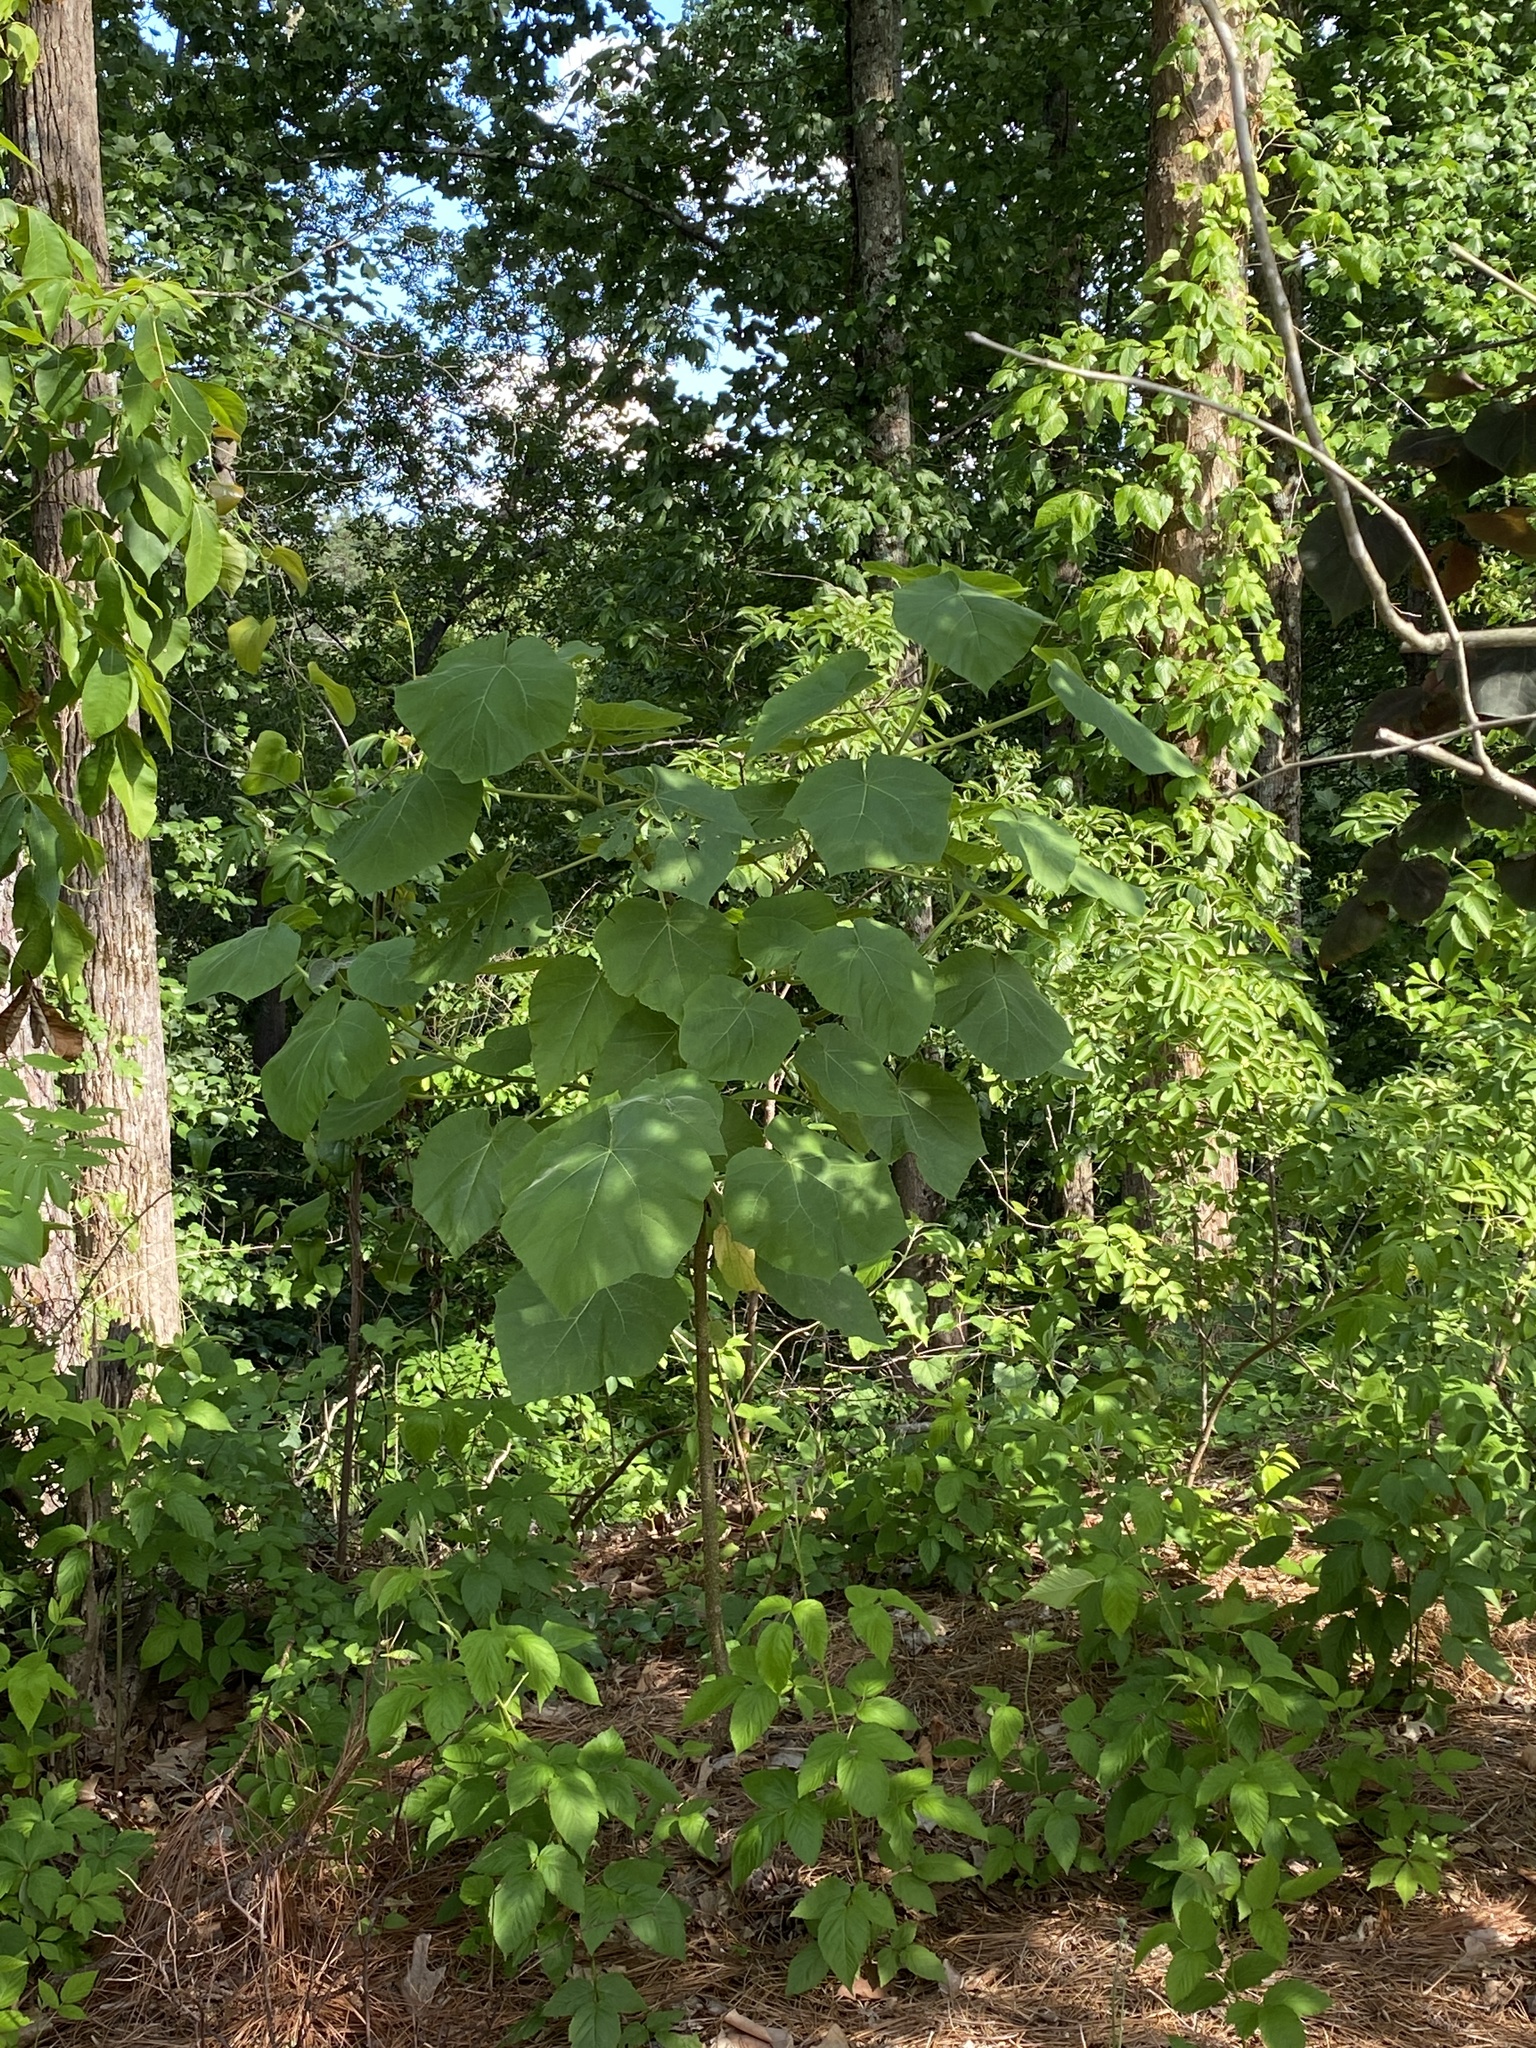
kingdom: Plantae
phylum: Tracheophyta
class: Magnoliopsida
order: Lamiales
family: Paulowniaceae
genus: Paulownia
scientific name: Paulownia tomentosa
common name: Foxglove-tree
